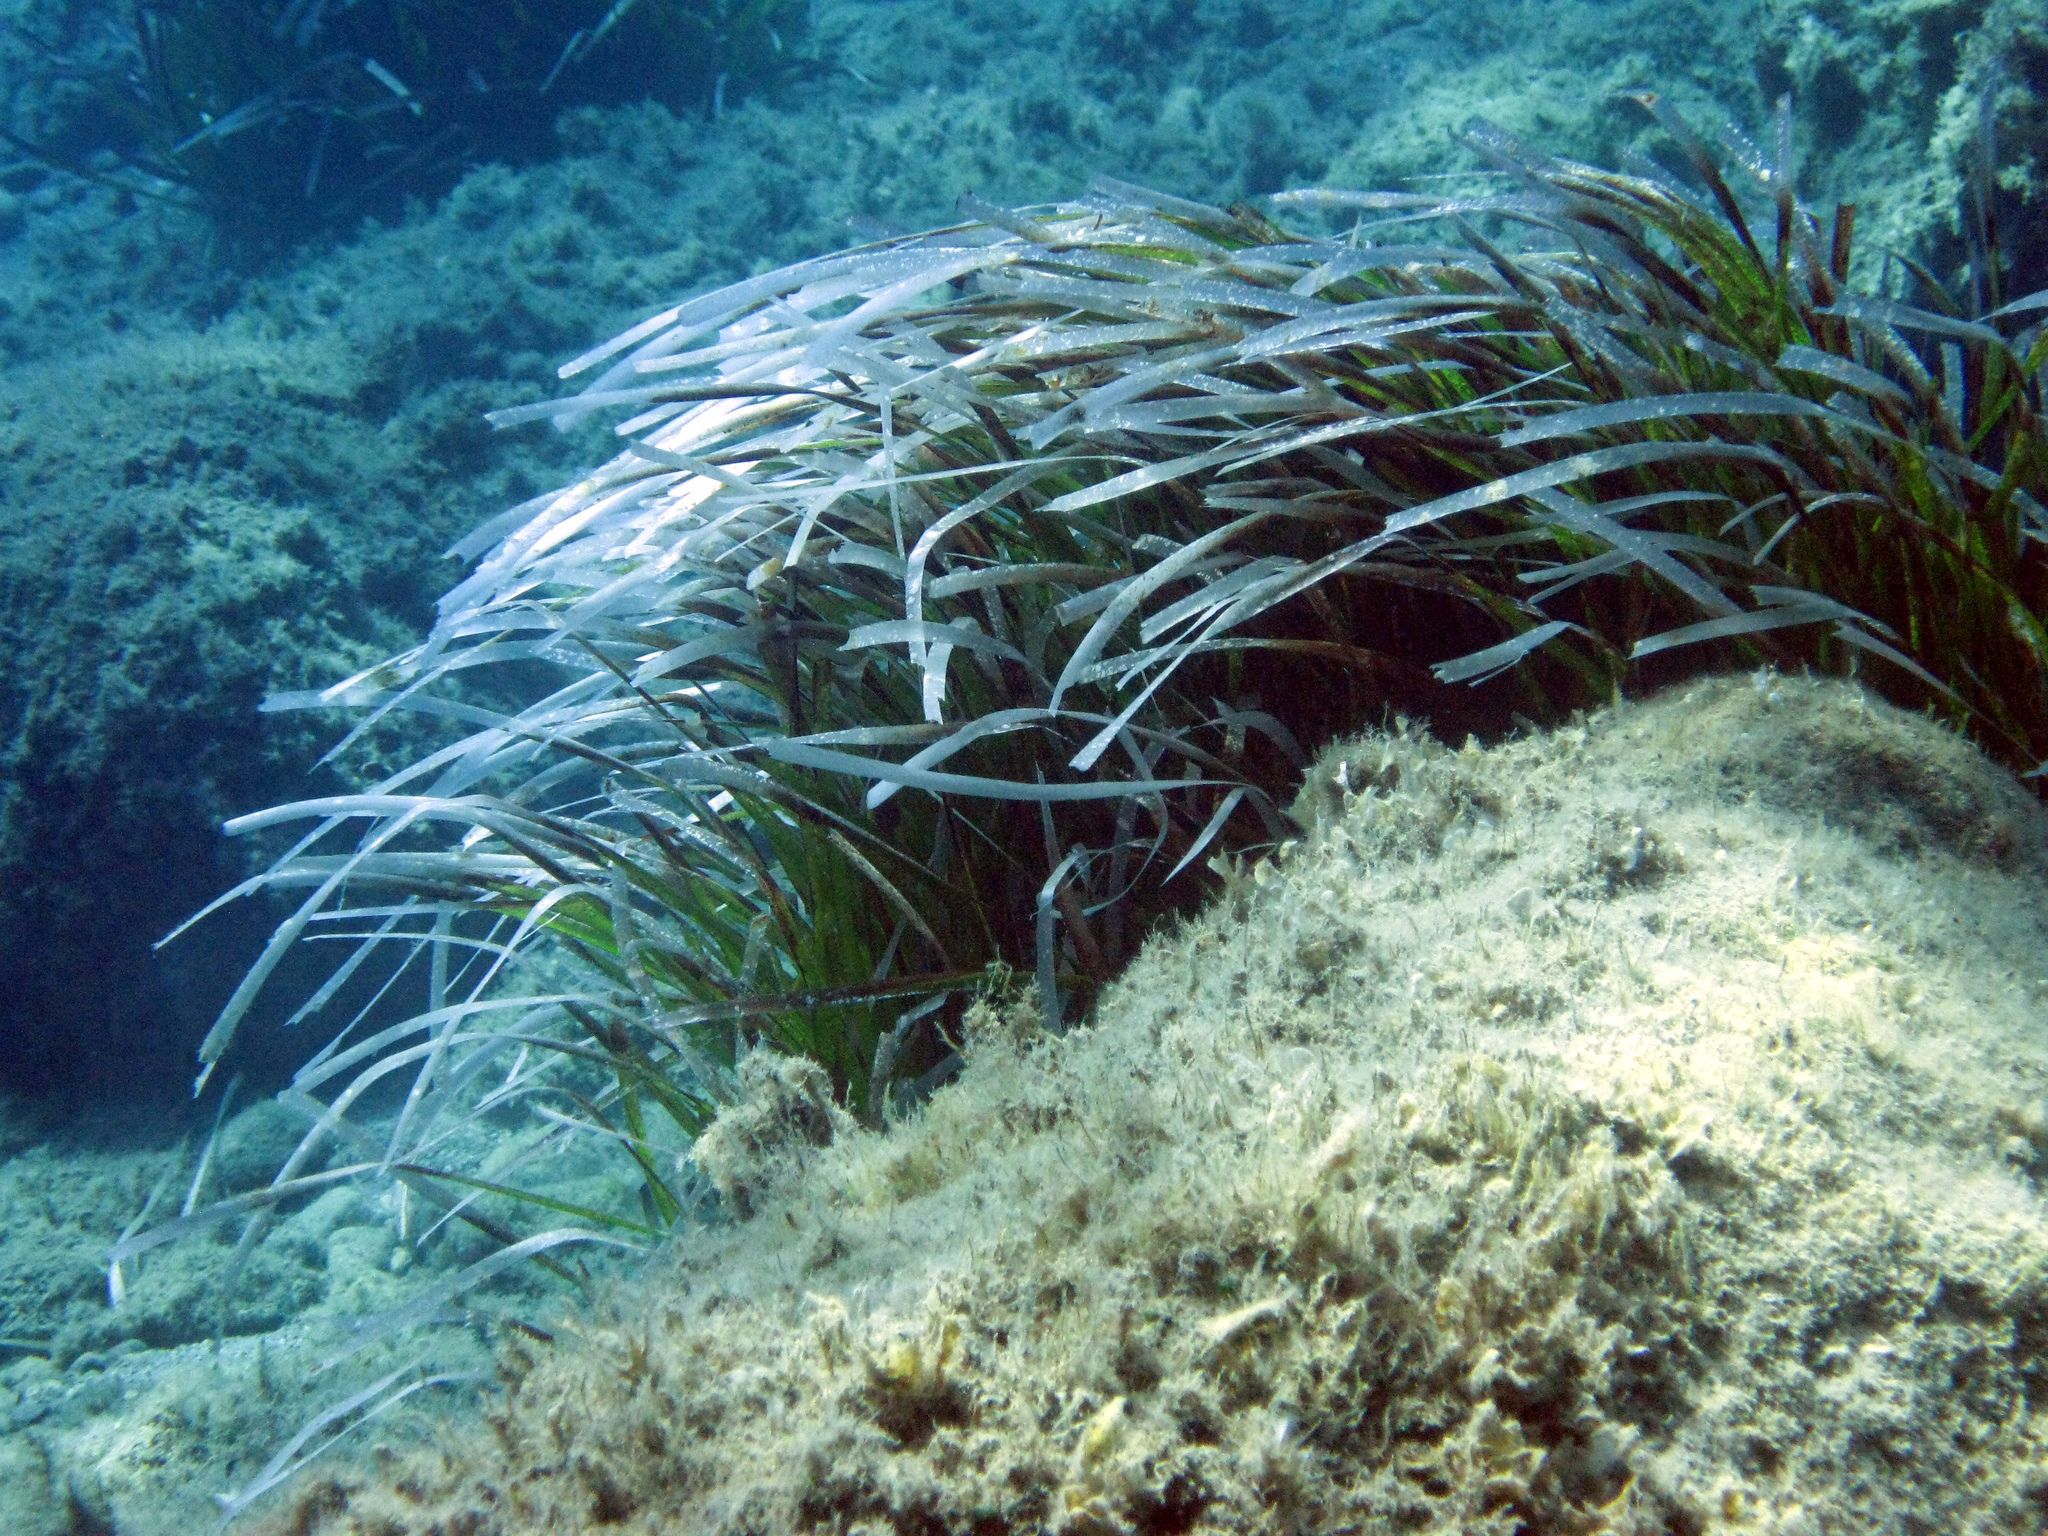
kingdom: Plantae
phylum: Tracheophyta
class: Liliopsida
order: Alismatales
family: Posidoniaceae
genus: Posidonia
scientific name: Posidonia oceanica
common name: Mediterranean tapeweed
